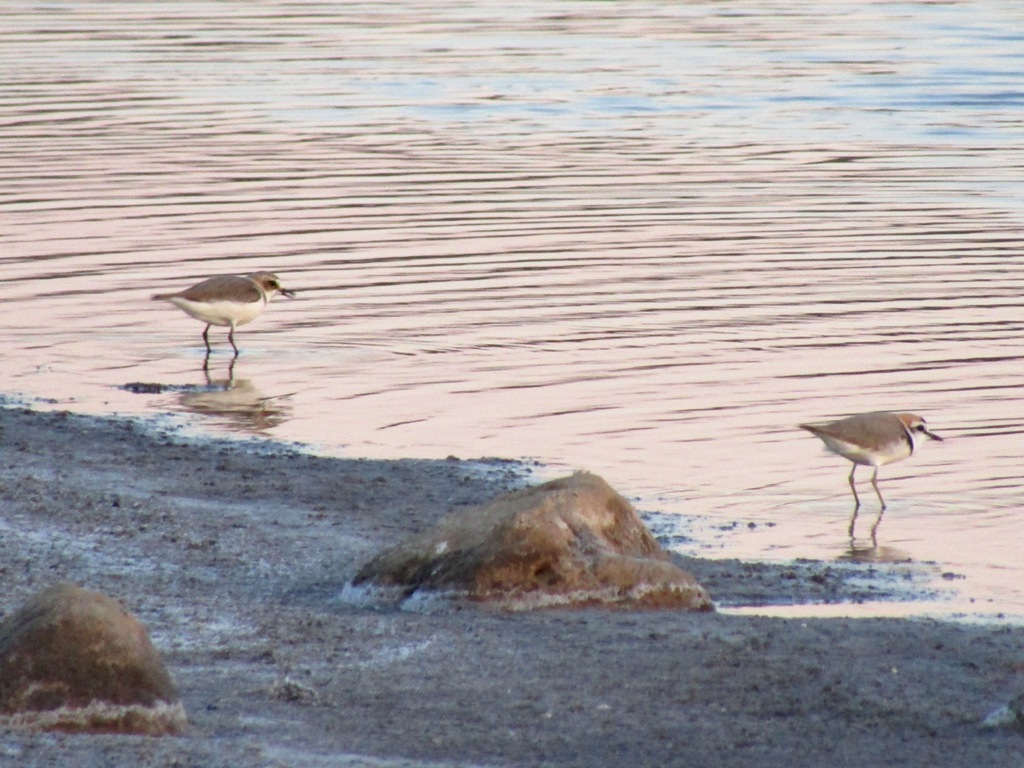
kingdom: Animalia
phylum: Chordata
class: Aves
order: Charadriiformes
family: Charadriidae
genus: Charadrius
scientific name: Charadrius alexandrinus
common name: Kentish plover
